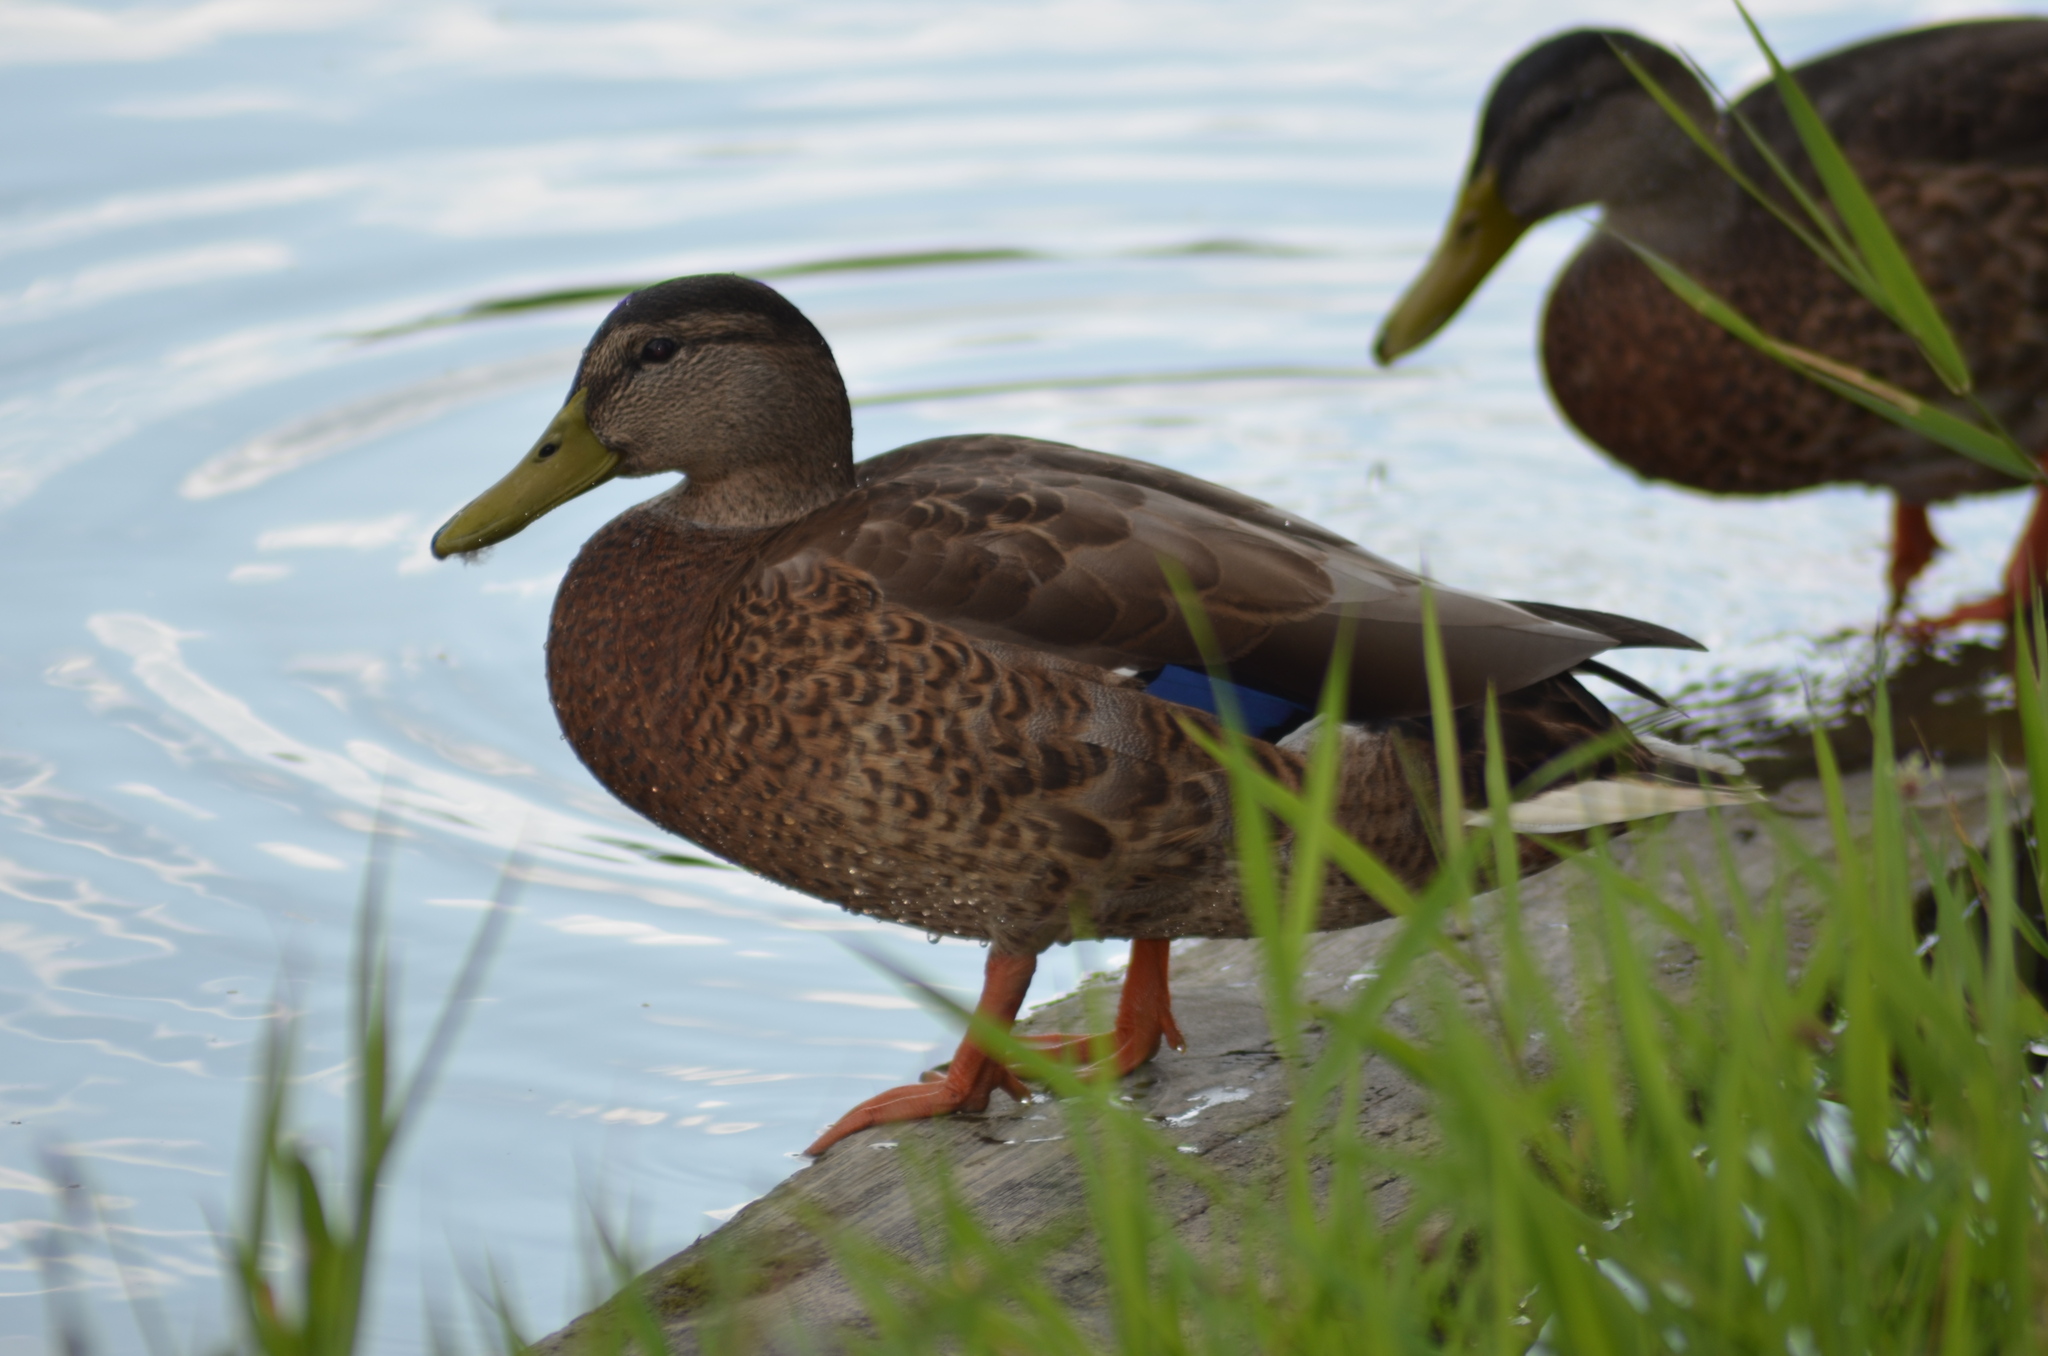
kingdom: Animalia
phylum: Chordata
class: Aves
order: Anseriformes
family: Anatidae
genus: Anas
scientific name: Anas platyrhynchos
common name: Mallard
